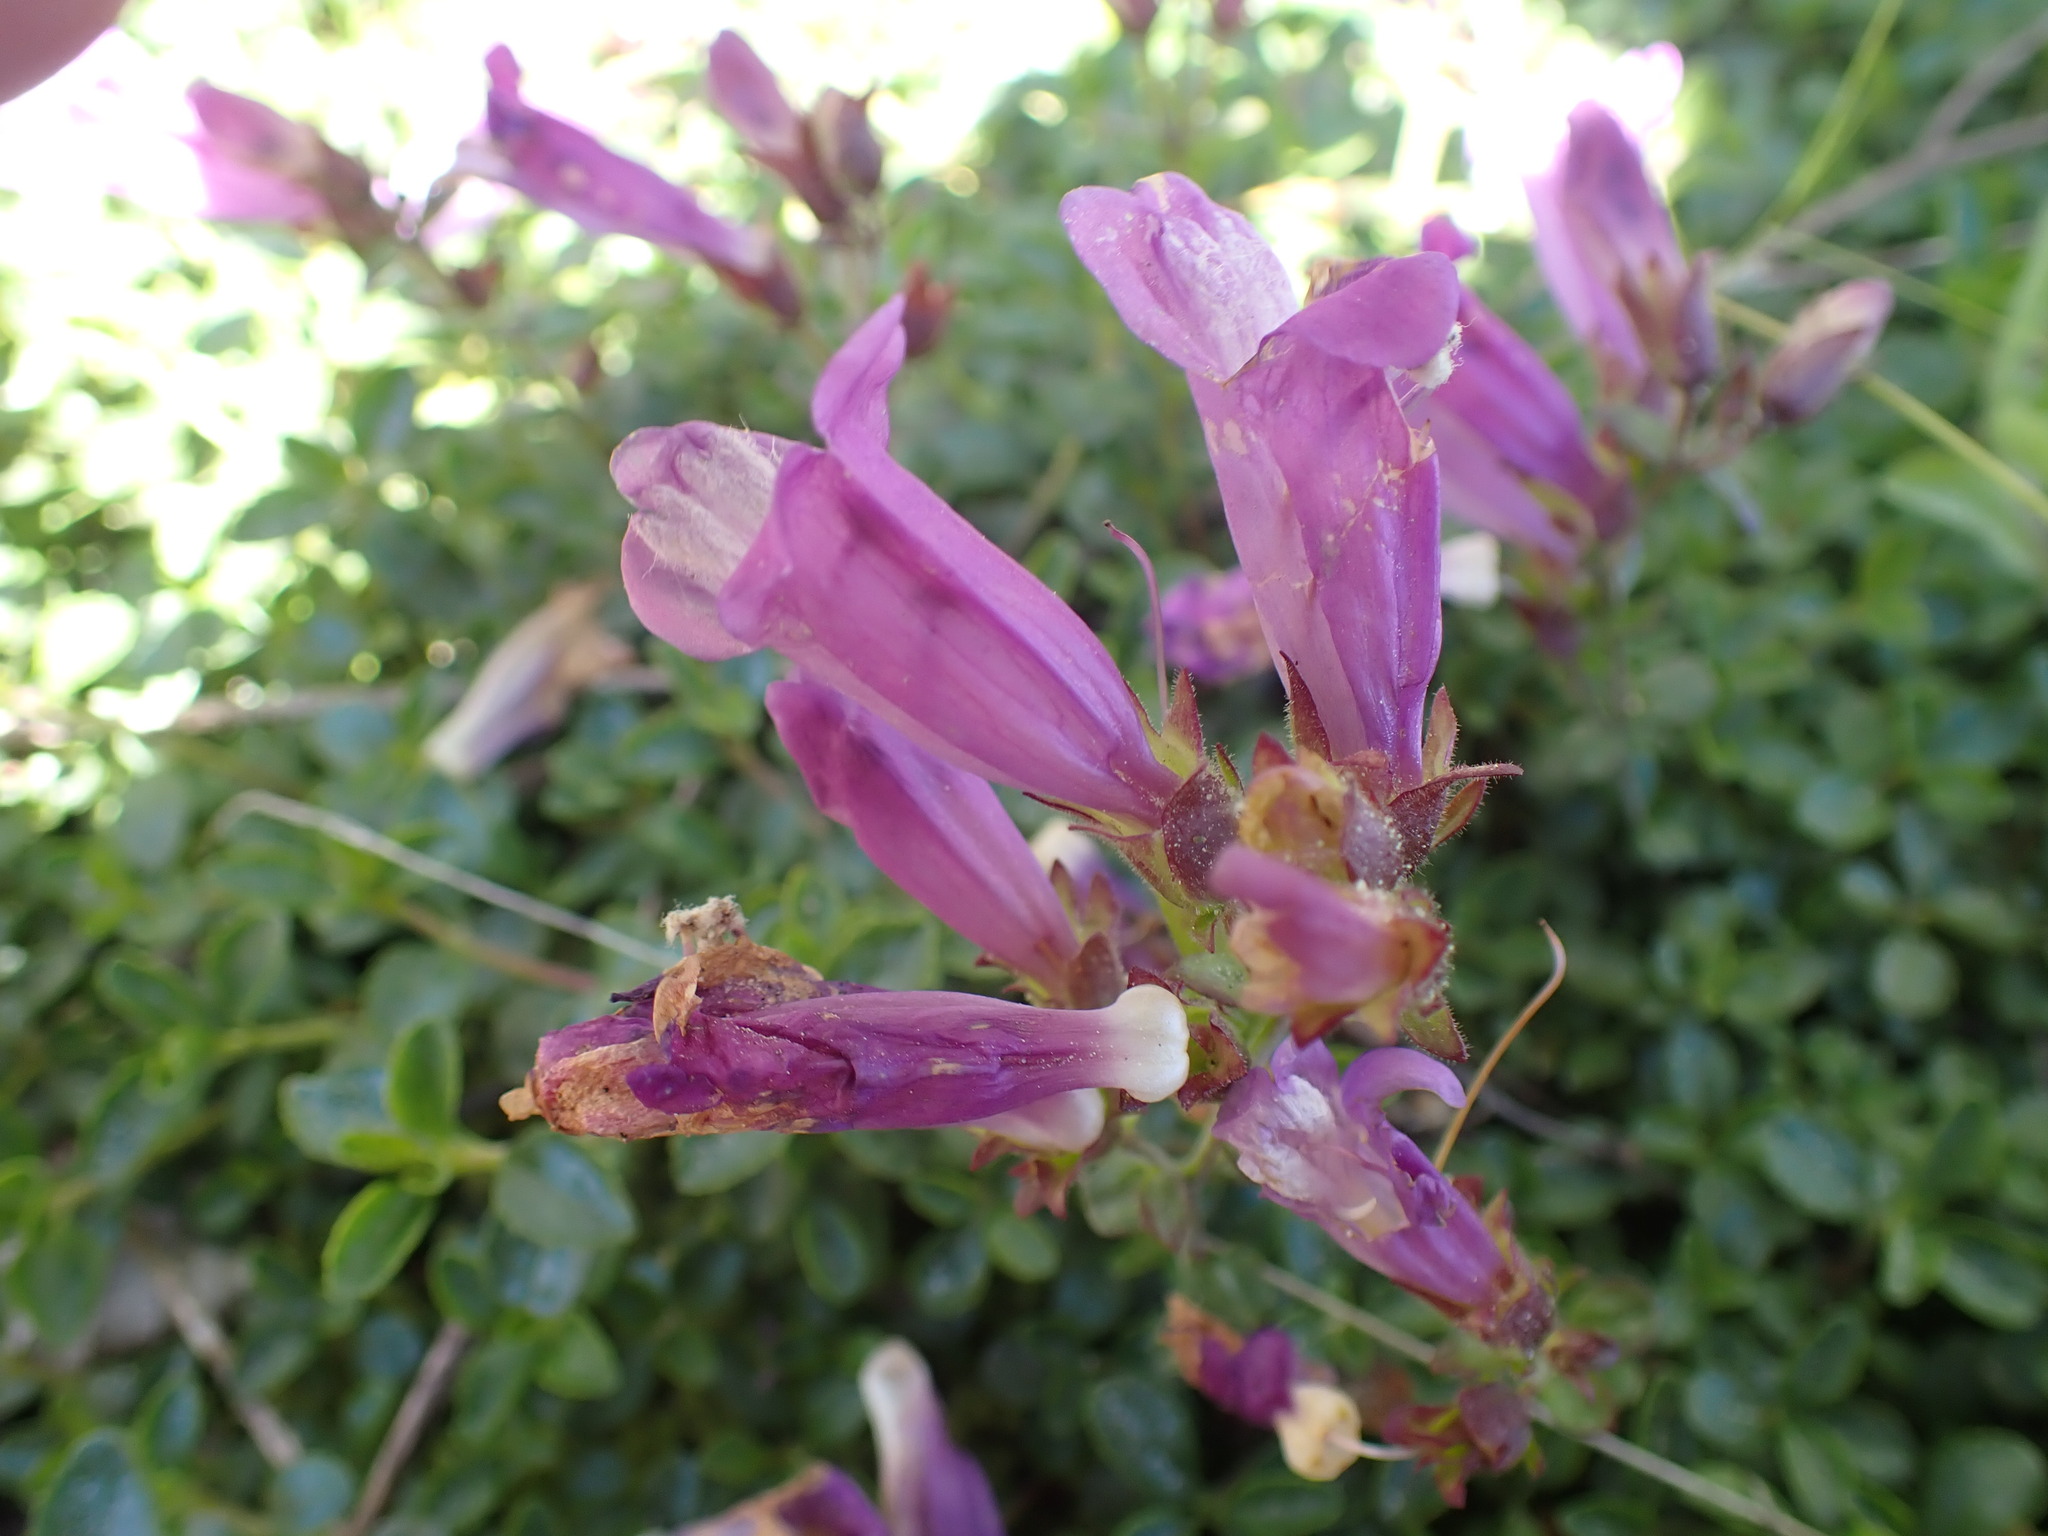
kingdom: Plantae
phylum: Tracheophyta
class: Magnoliopsida
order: Lamiales
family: Plantaginaceae
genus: Penstemon
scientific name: Penstemon davidsonii
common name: Davidson's penstemon
